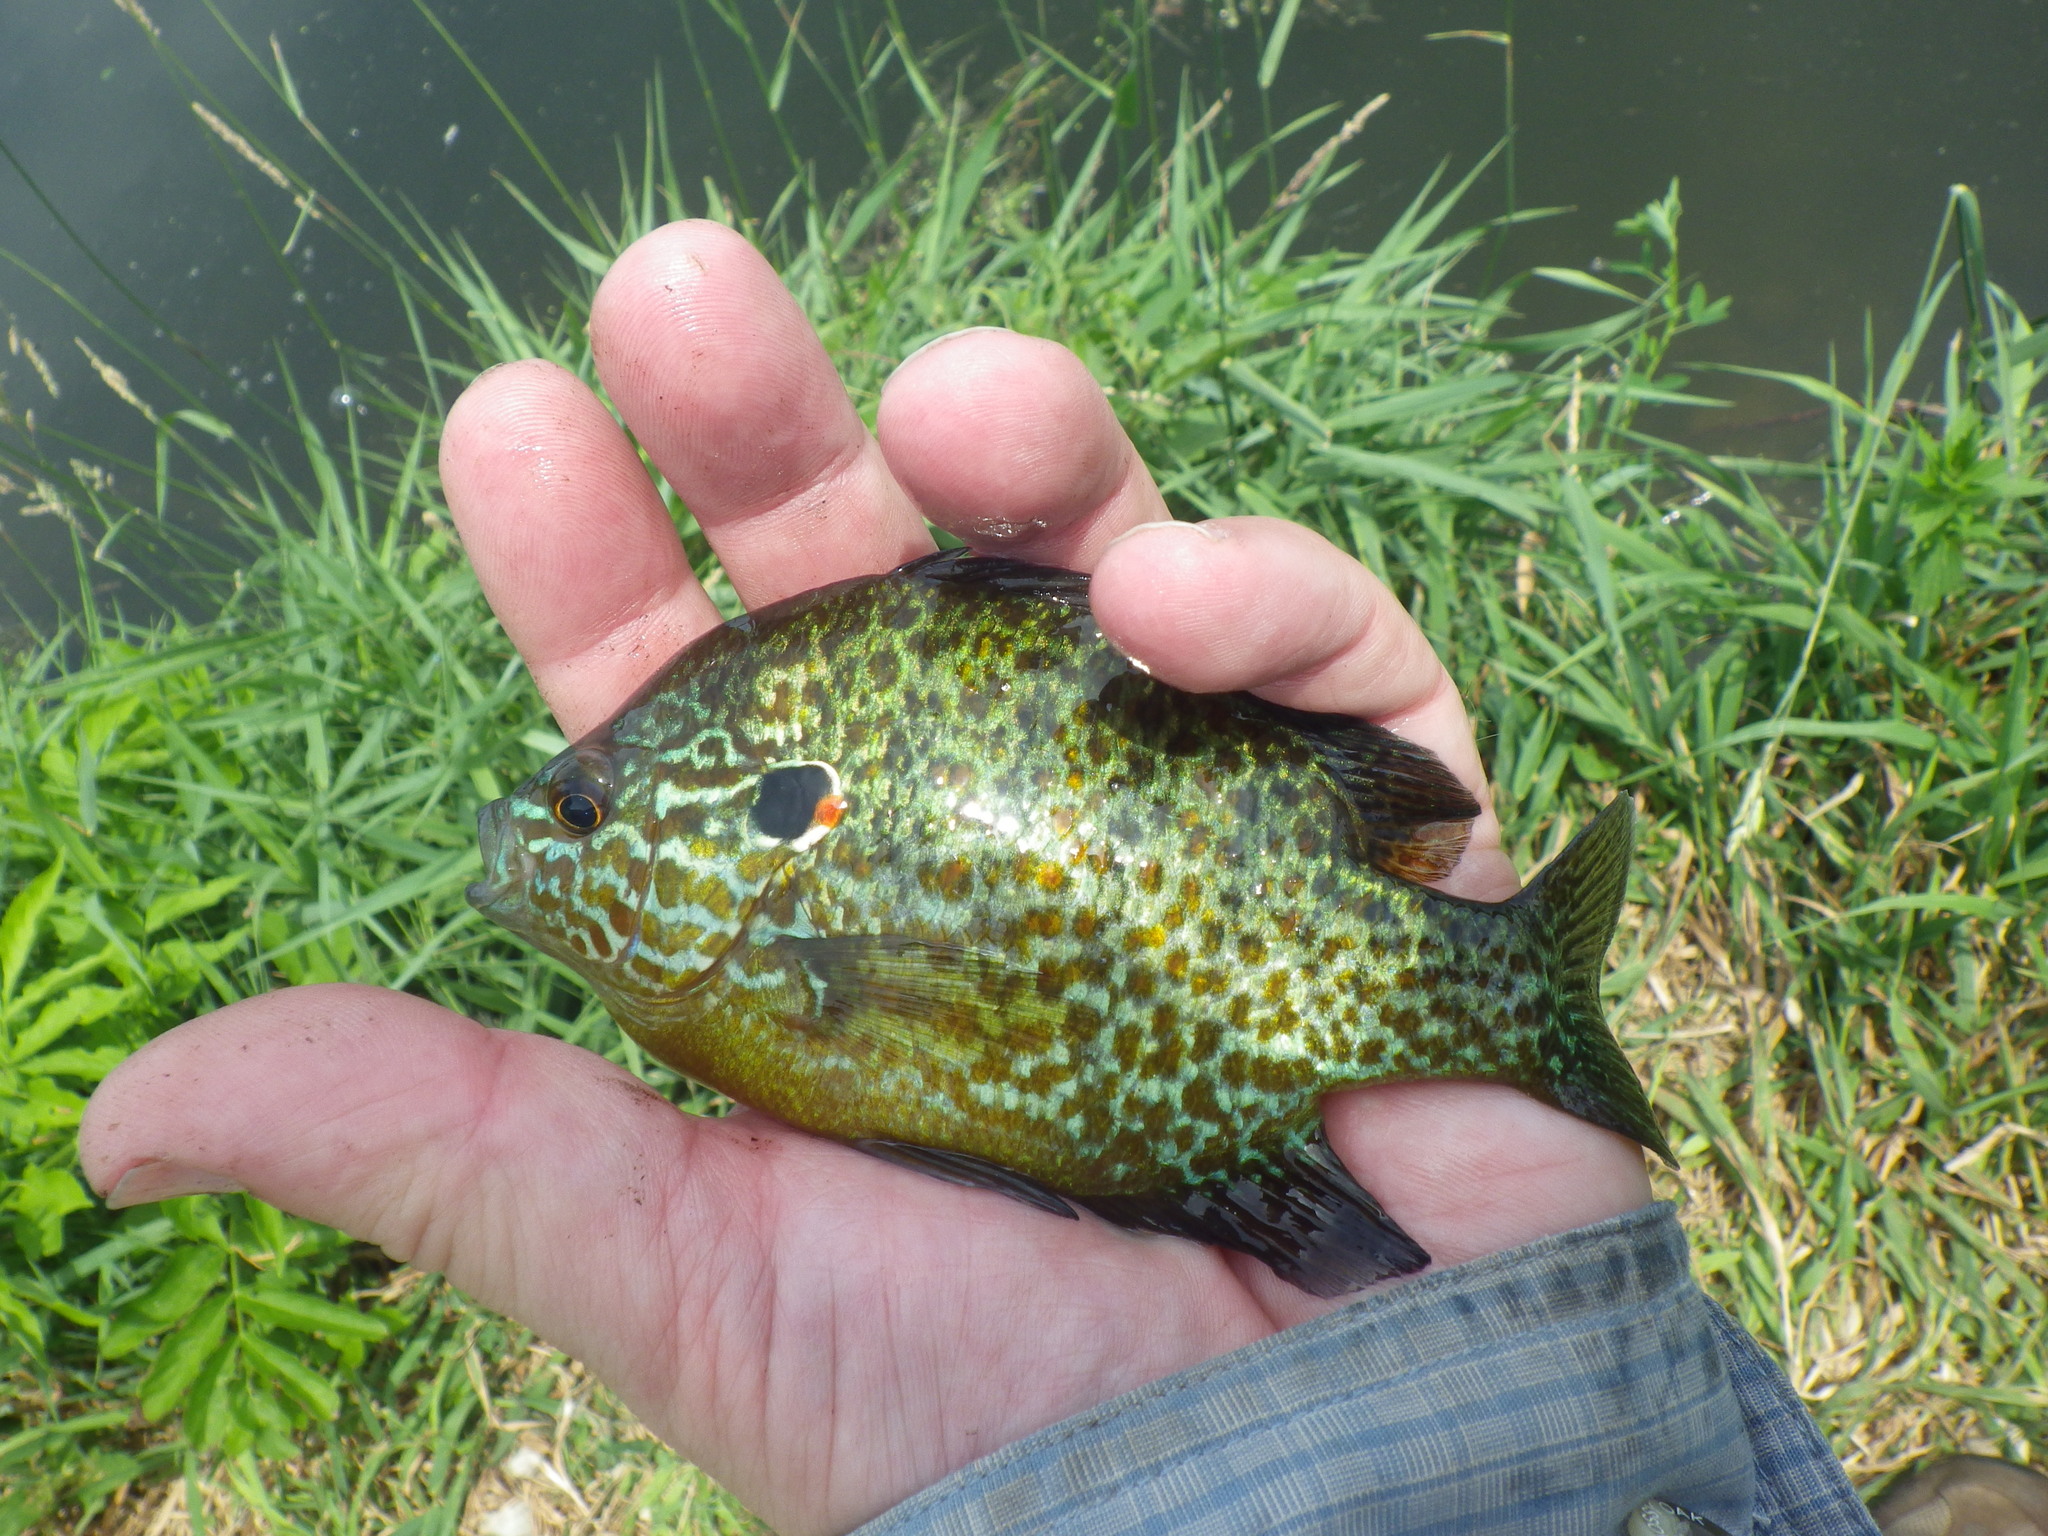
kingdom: Animalia
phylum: Chordata
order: Perciformes
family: Centrarchidae
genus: Lepomis
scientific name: Lepomis gibbosus
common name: Pumpkinseed
